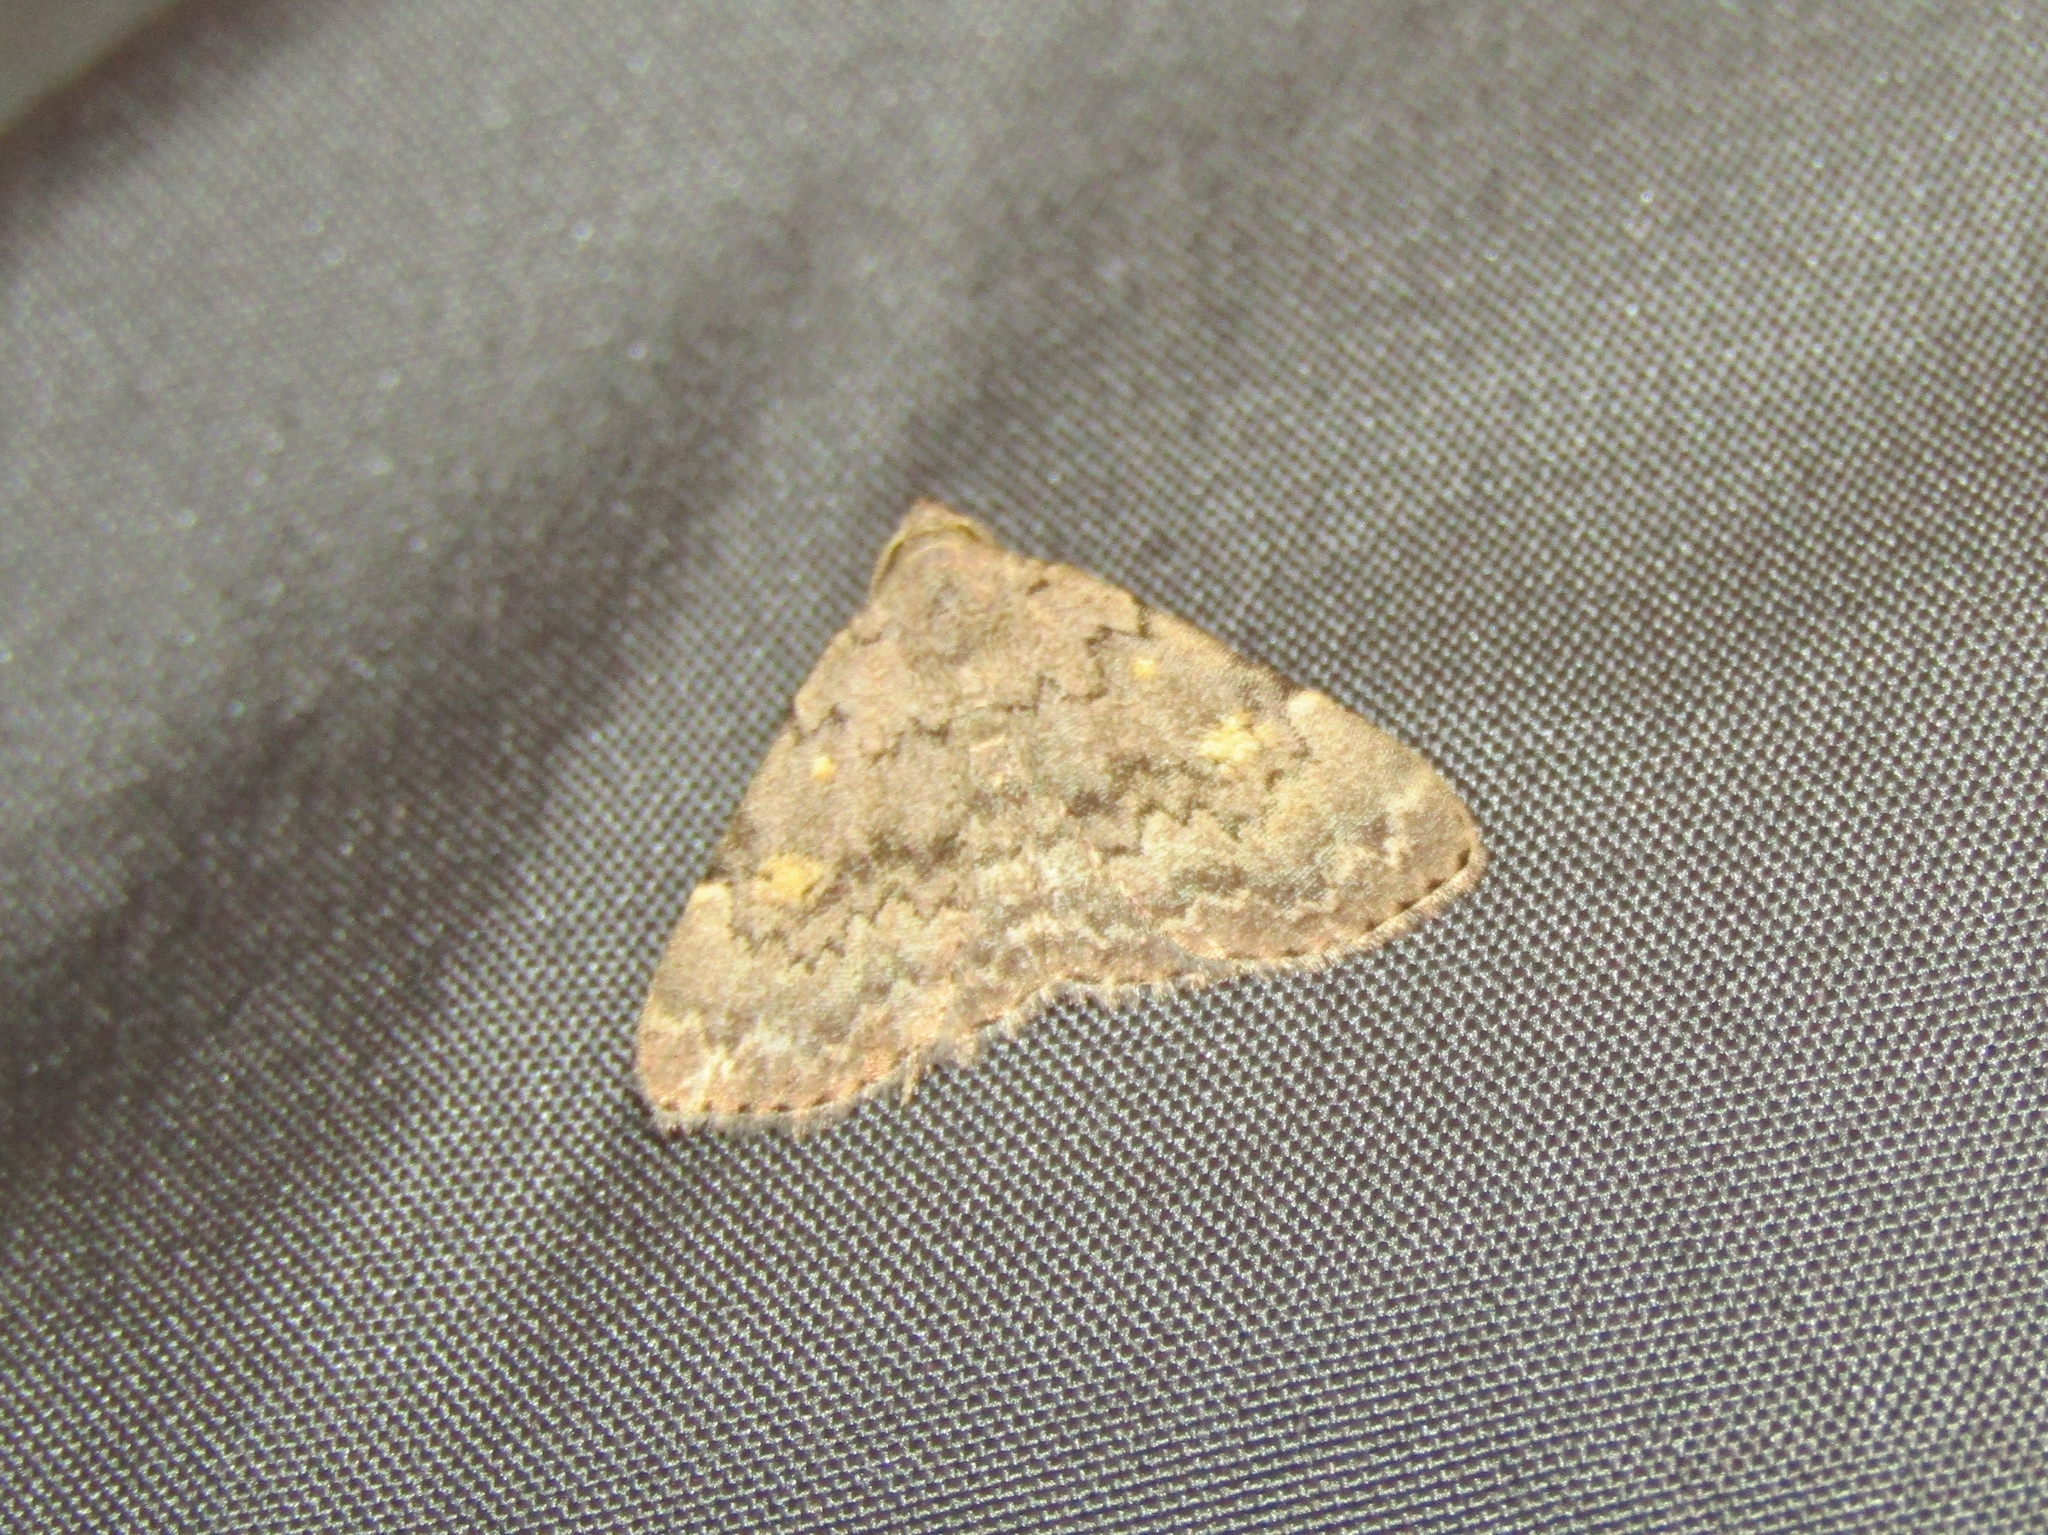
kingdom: Animalia
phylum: Arthropoda
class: Insecta
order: Lepidoptera
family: Erebidae
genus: Idia
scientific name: Idia aemula
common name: Common idia moth
